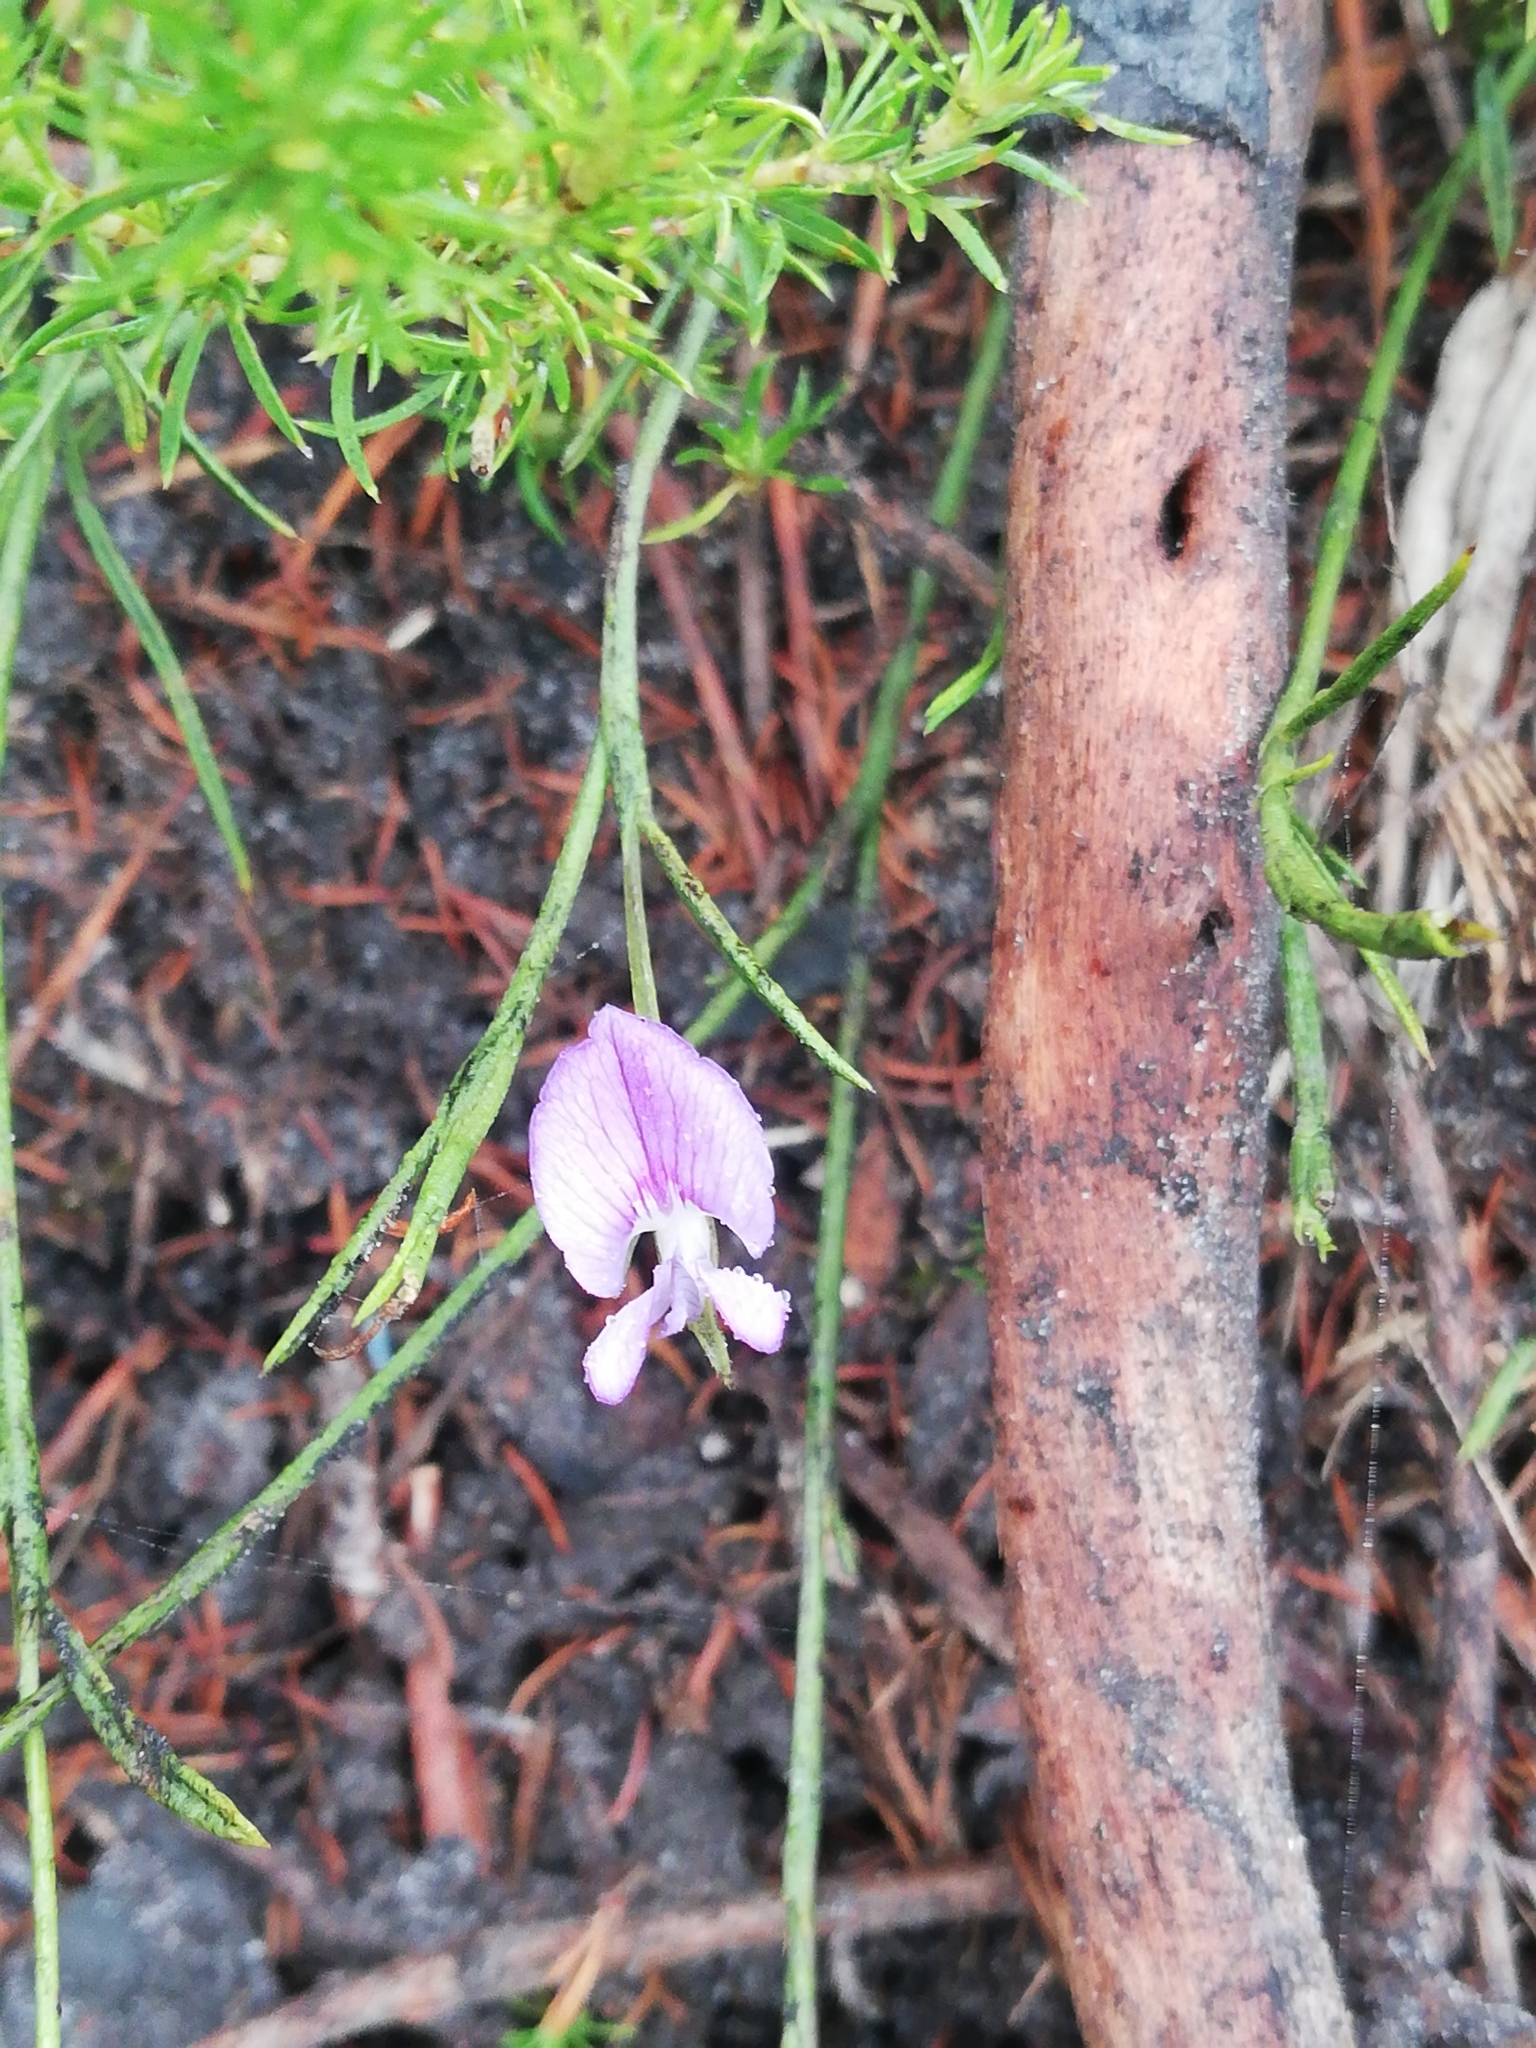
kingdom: Plantae
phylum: Tracheophyta
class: Magnoliopsida
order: Fabales
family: Fabaceae
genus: Psoralea
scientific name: Psoralea trullata
